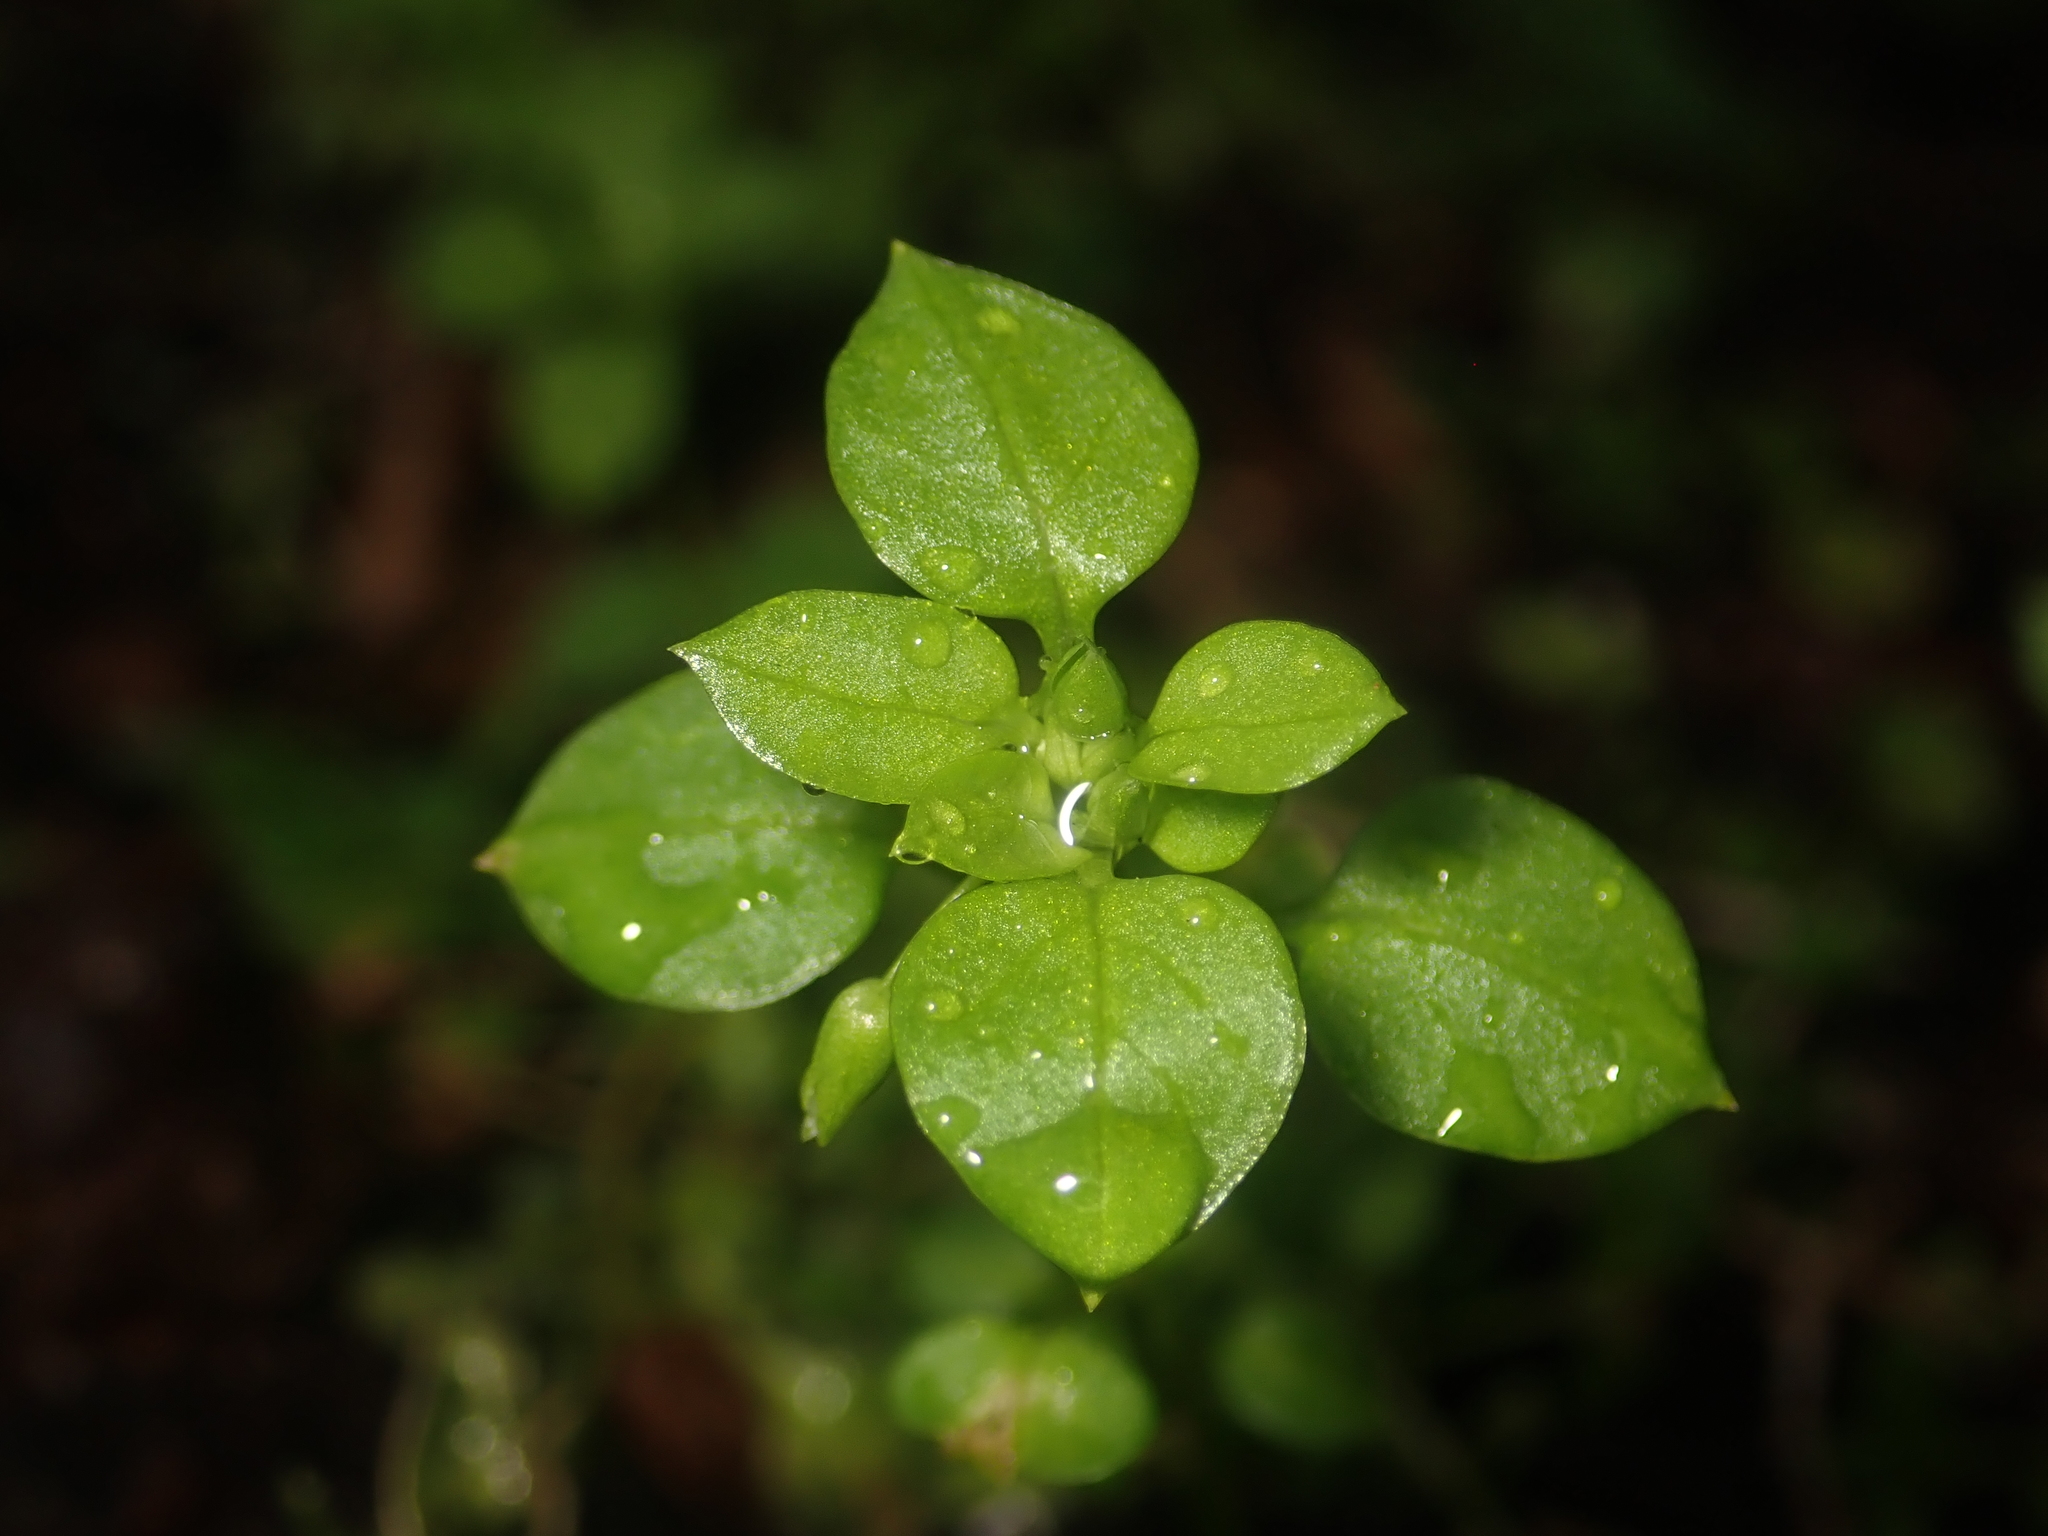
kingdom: Plantae
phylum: Tracheophyta
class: Magnoliopsida
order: Caryophyllales
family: Caryophyllaceae
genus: Stellaria
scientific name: Stellaria media
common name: Common chickweed
